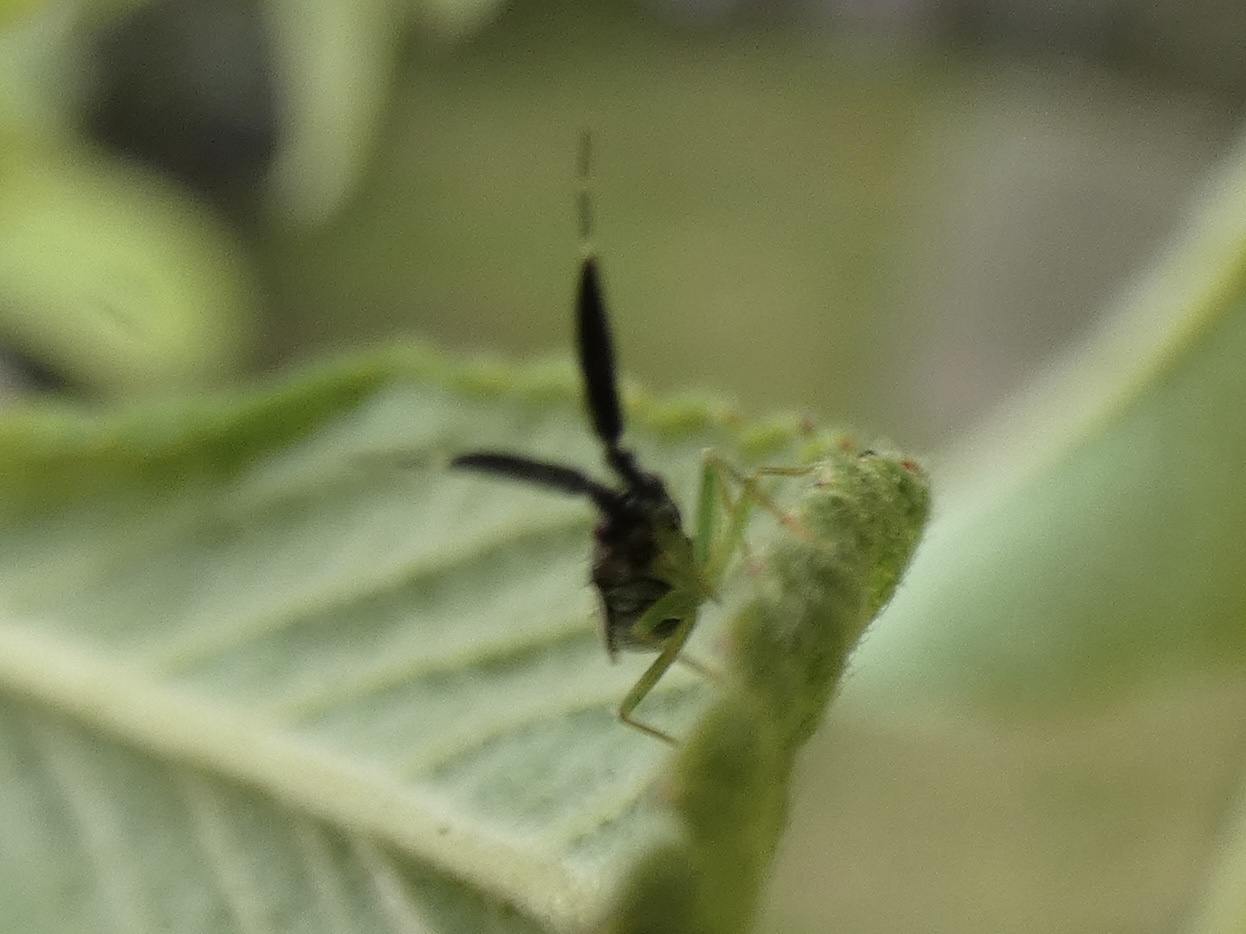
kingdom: Animalia
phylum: Arthropoda
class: Insecta
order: Hemiptera
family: Miridae
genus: Heterotoma
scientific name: Heterotoma planicornis
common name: Plant bug
